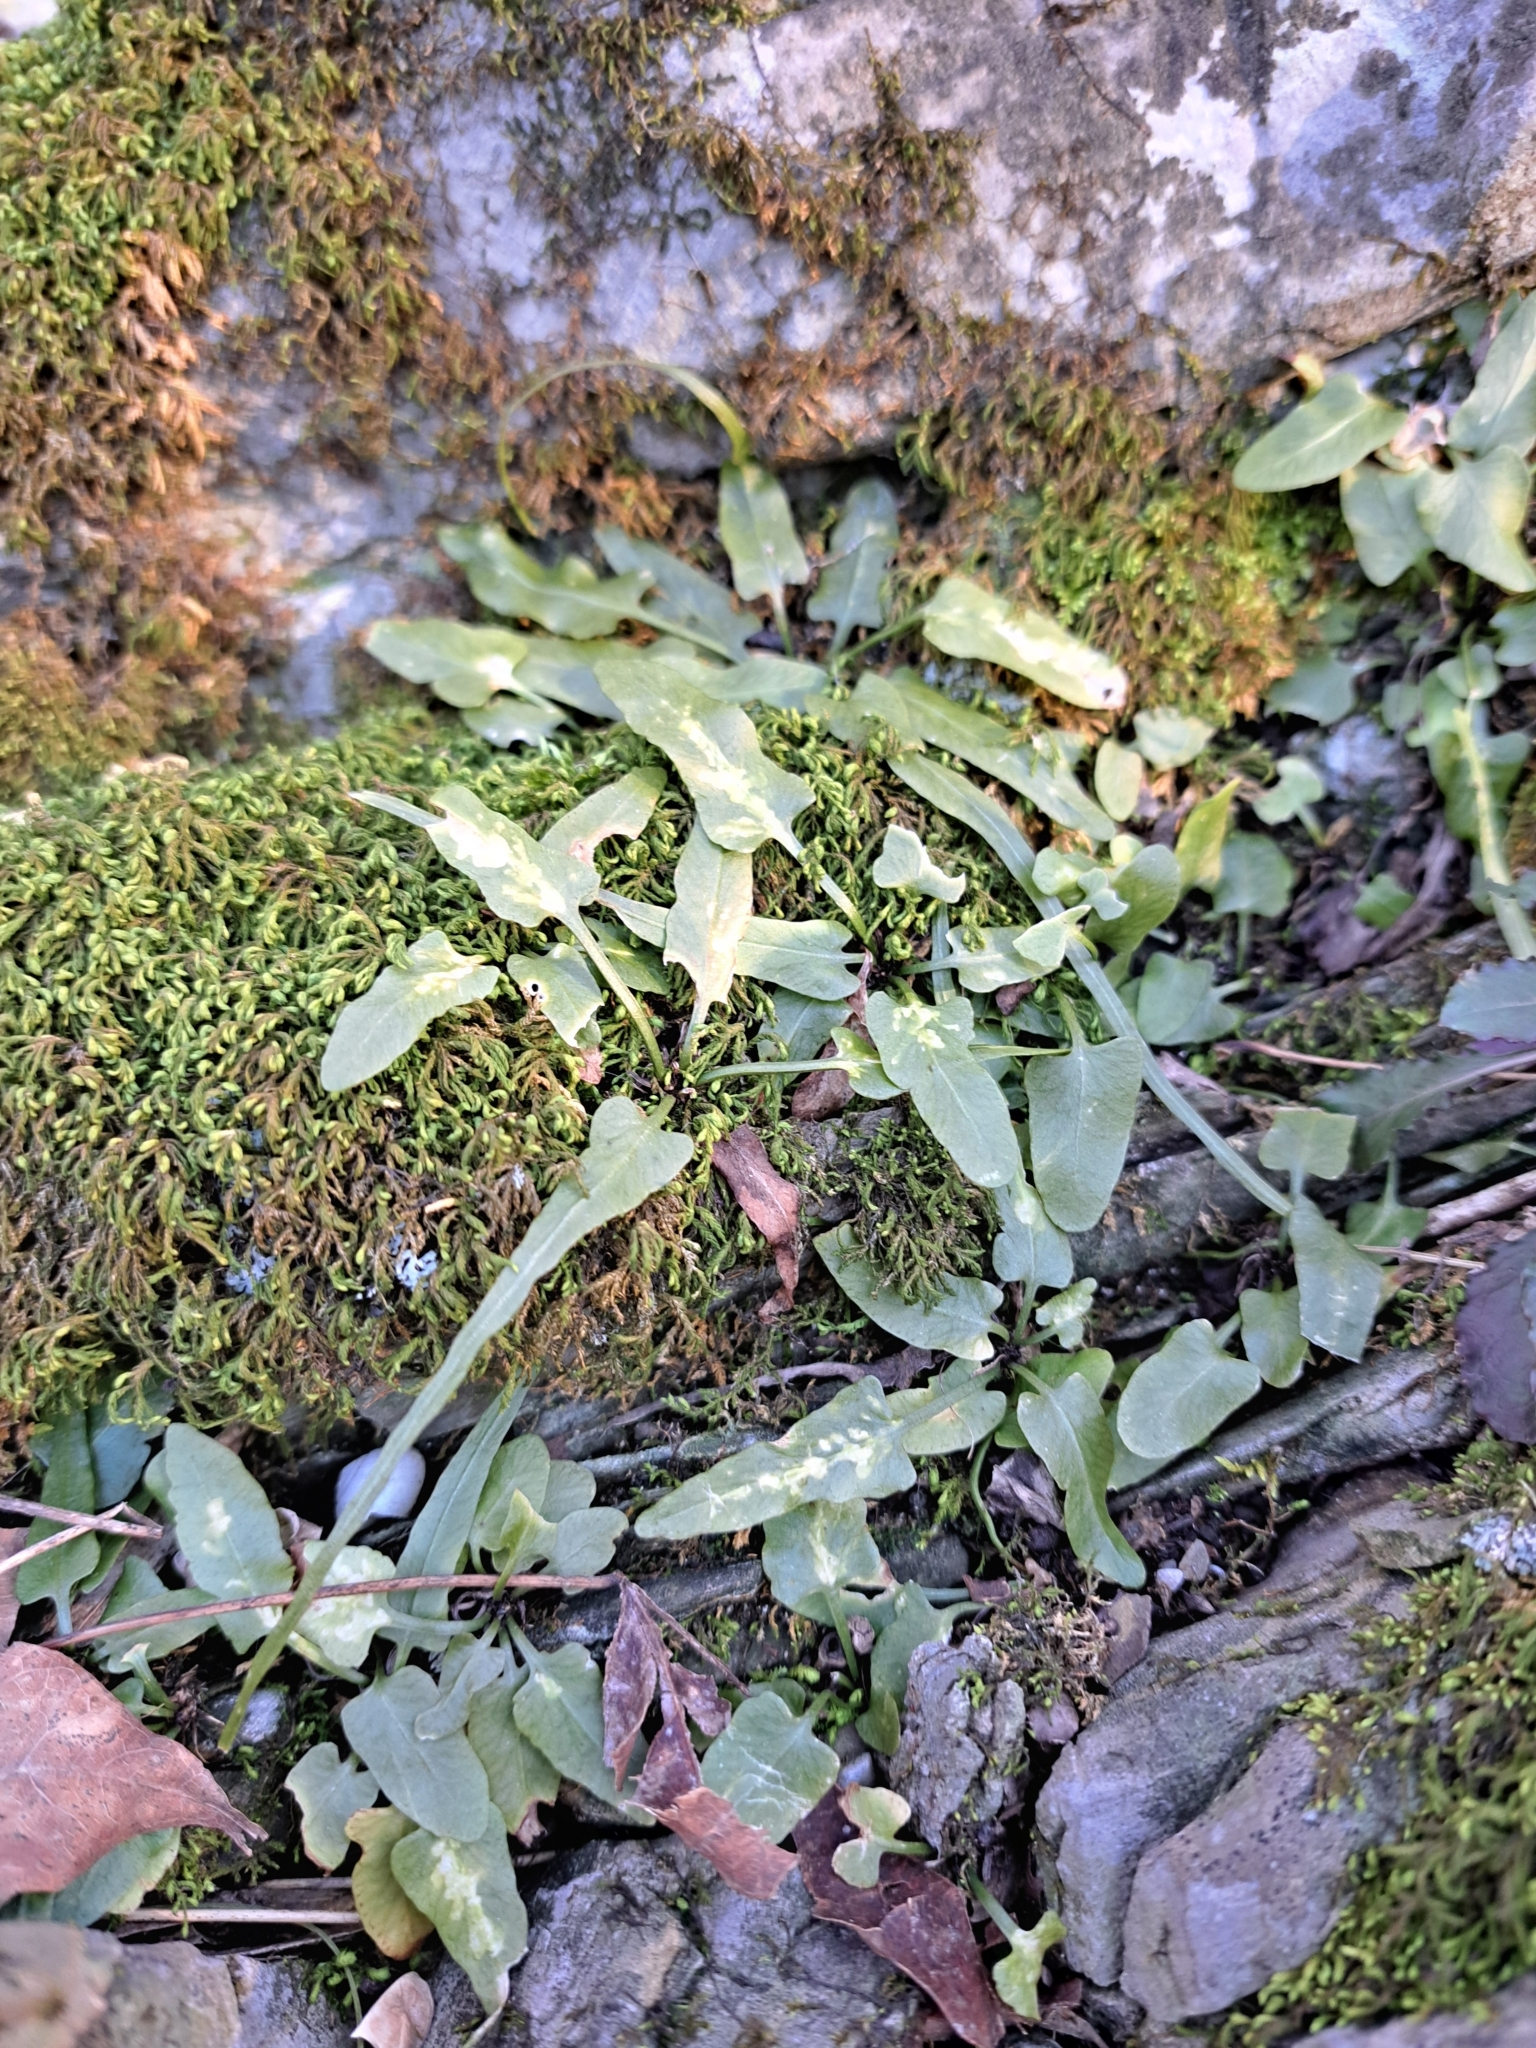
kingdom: Plantae
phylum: Tracheophyta
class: Polypodiopsida
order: Polypodiales
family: Aspleniaceae
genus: Asplenium
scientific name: Asplenium rhizophyllum
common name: Walking fern
